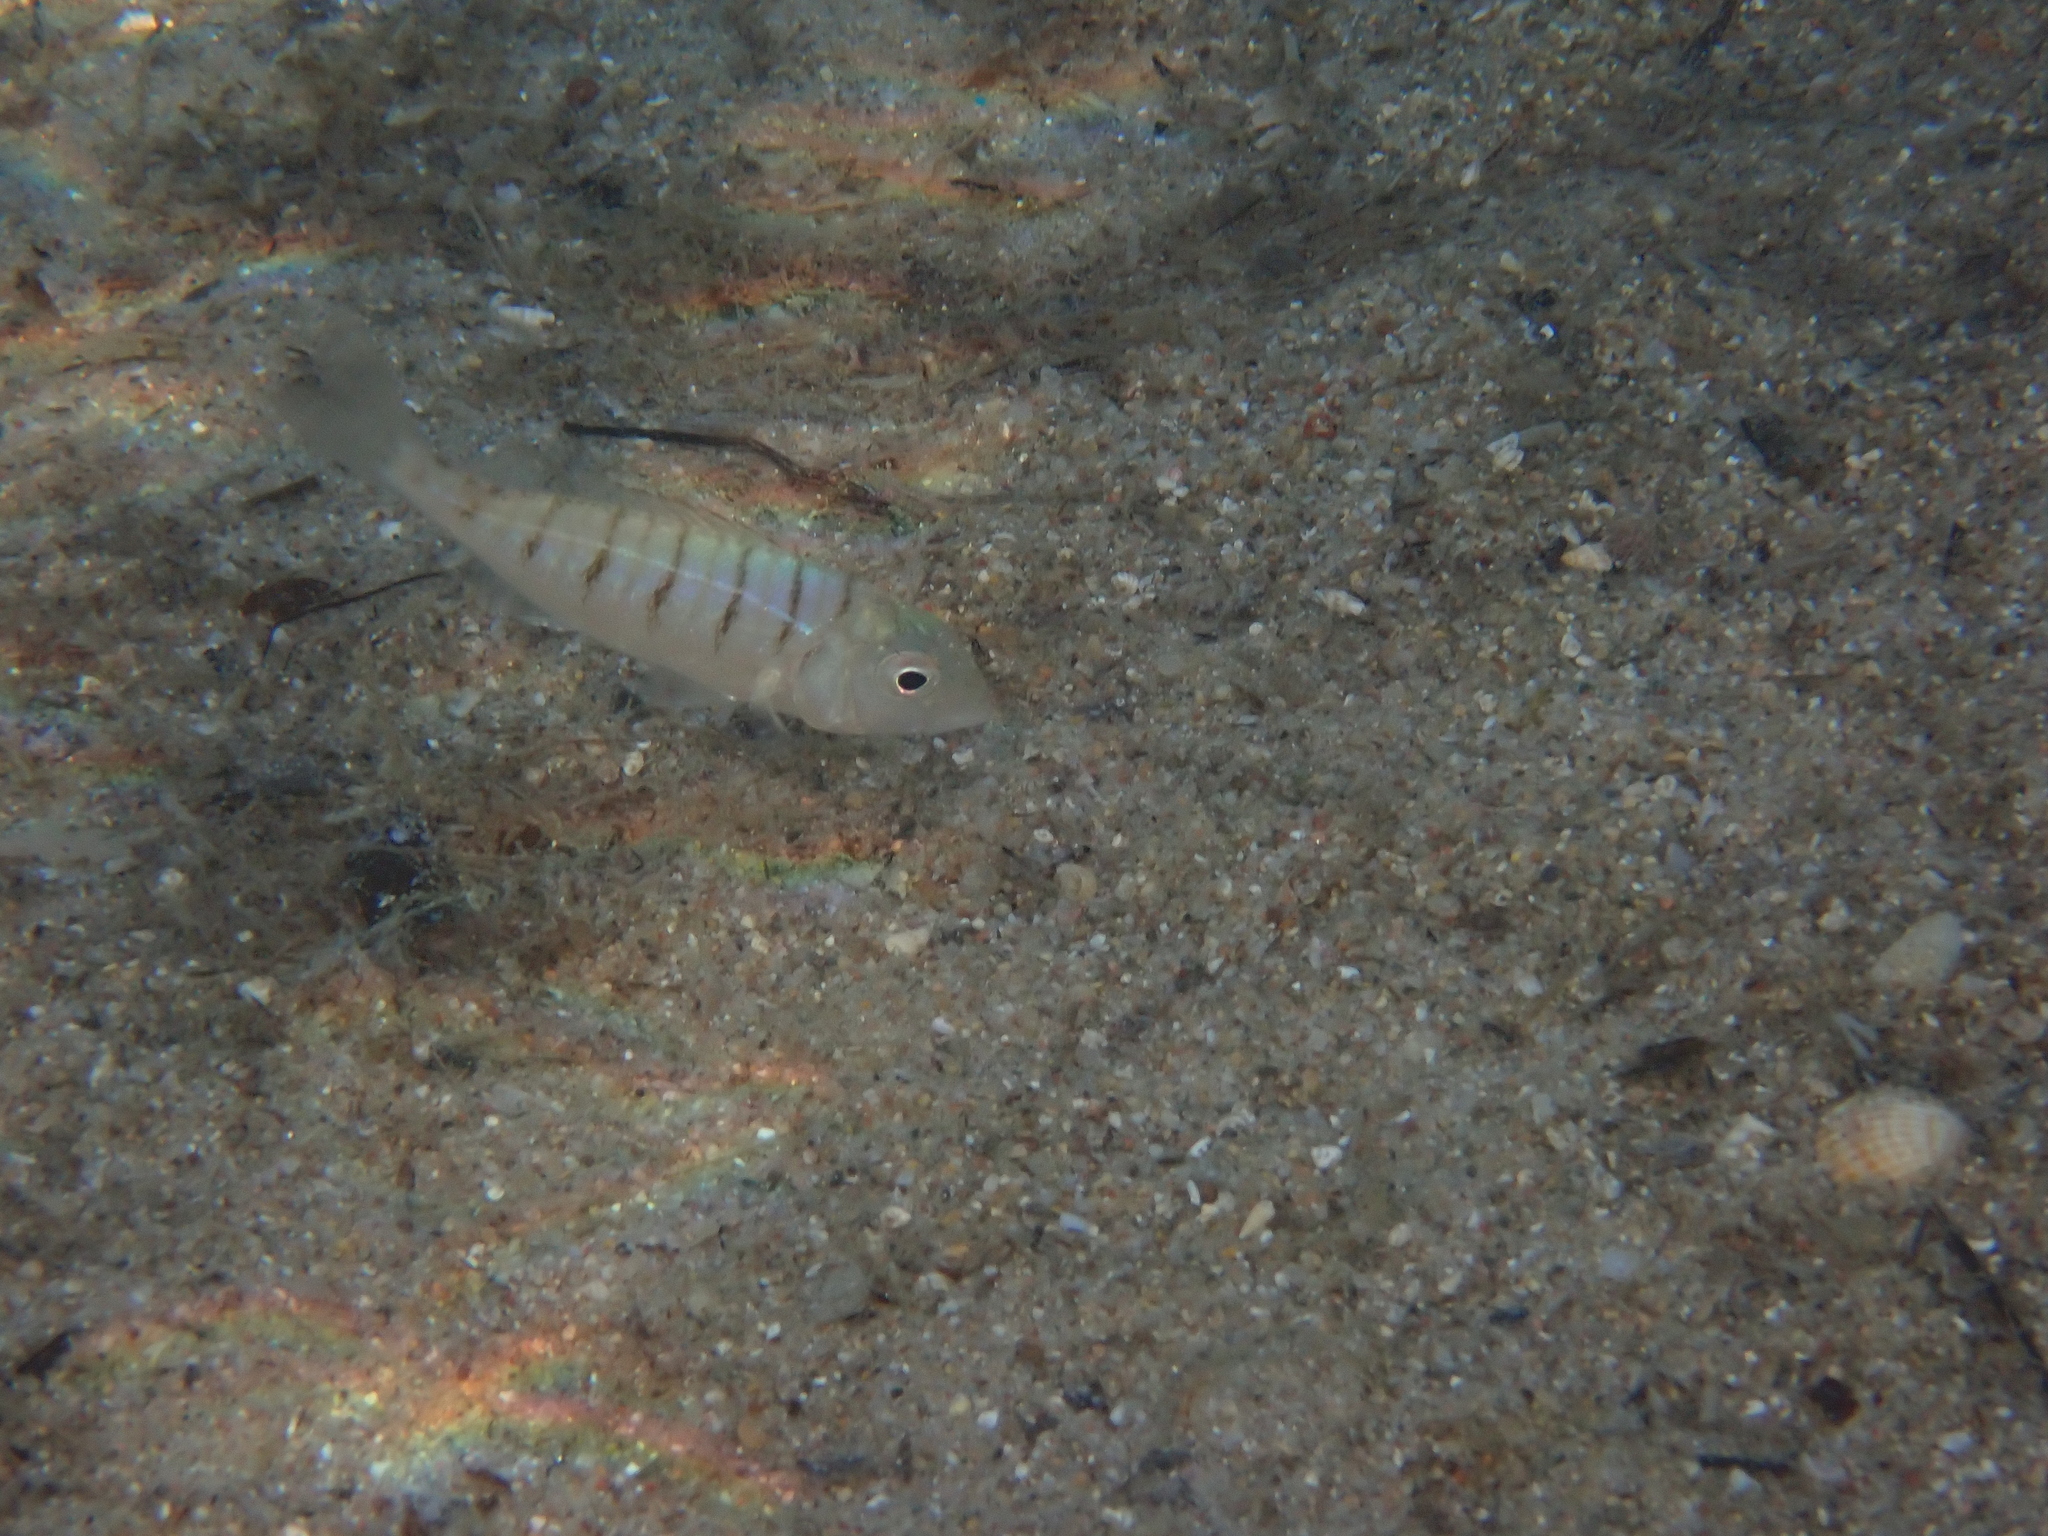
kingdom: Animalia
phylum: Chordata
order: Perciformes
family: Sparidae
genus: Lithognathus
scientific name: Lithognathus mormyrus
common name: Sand steenbras
